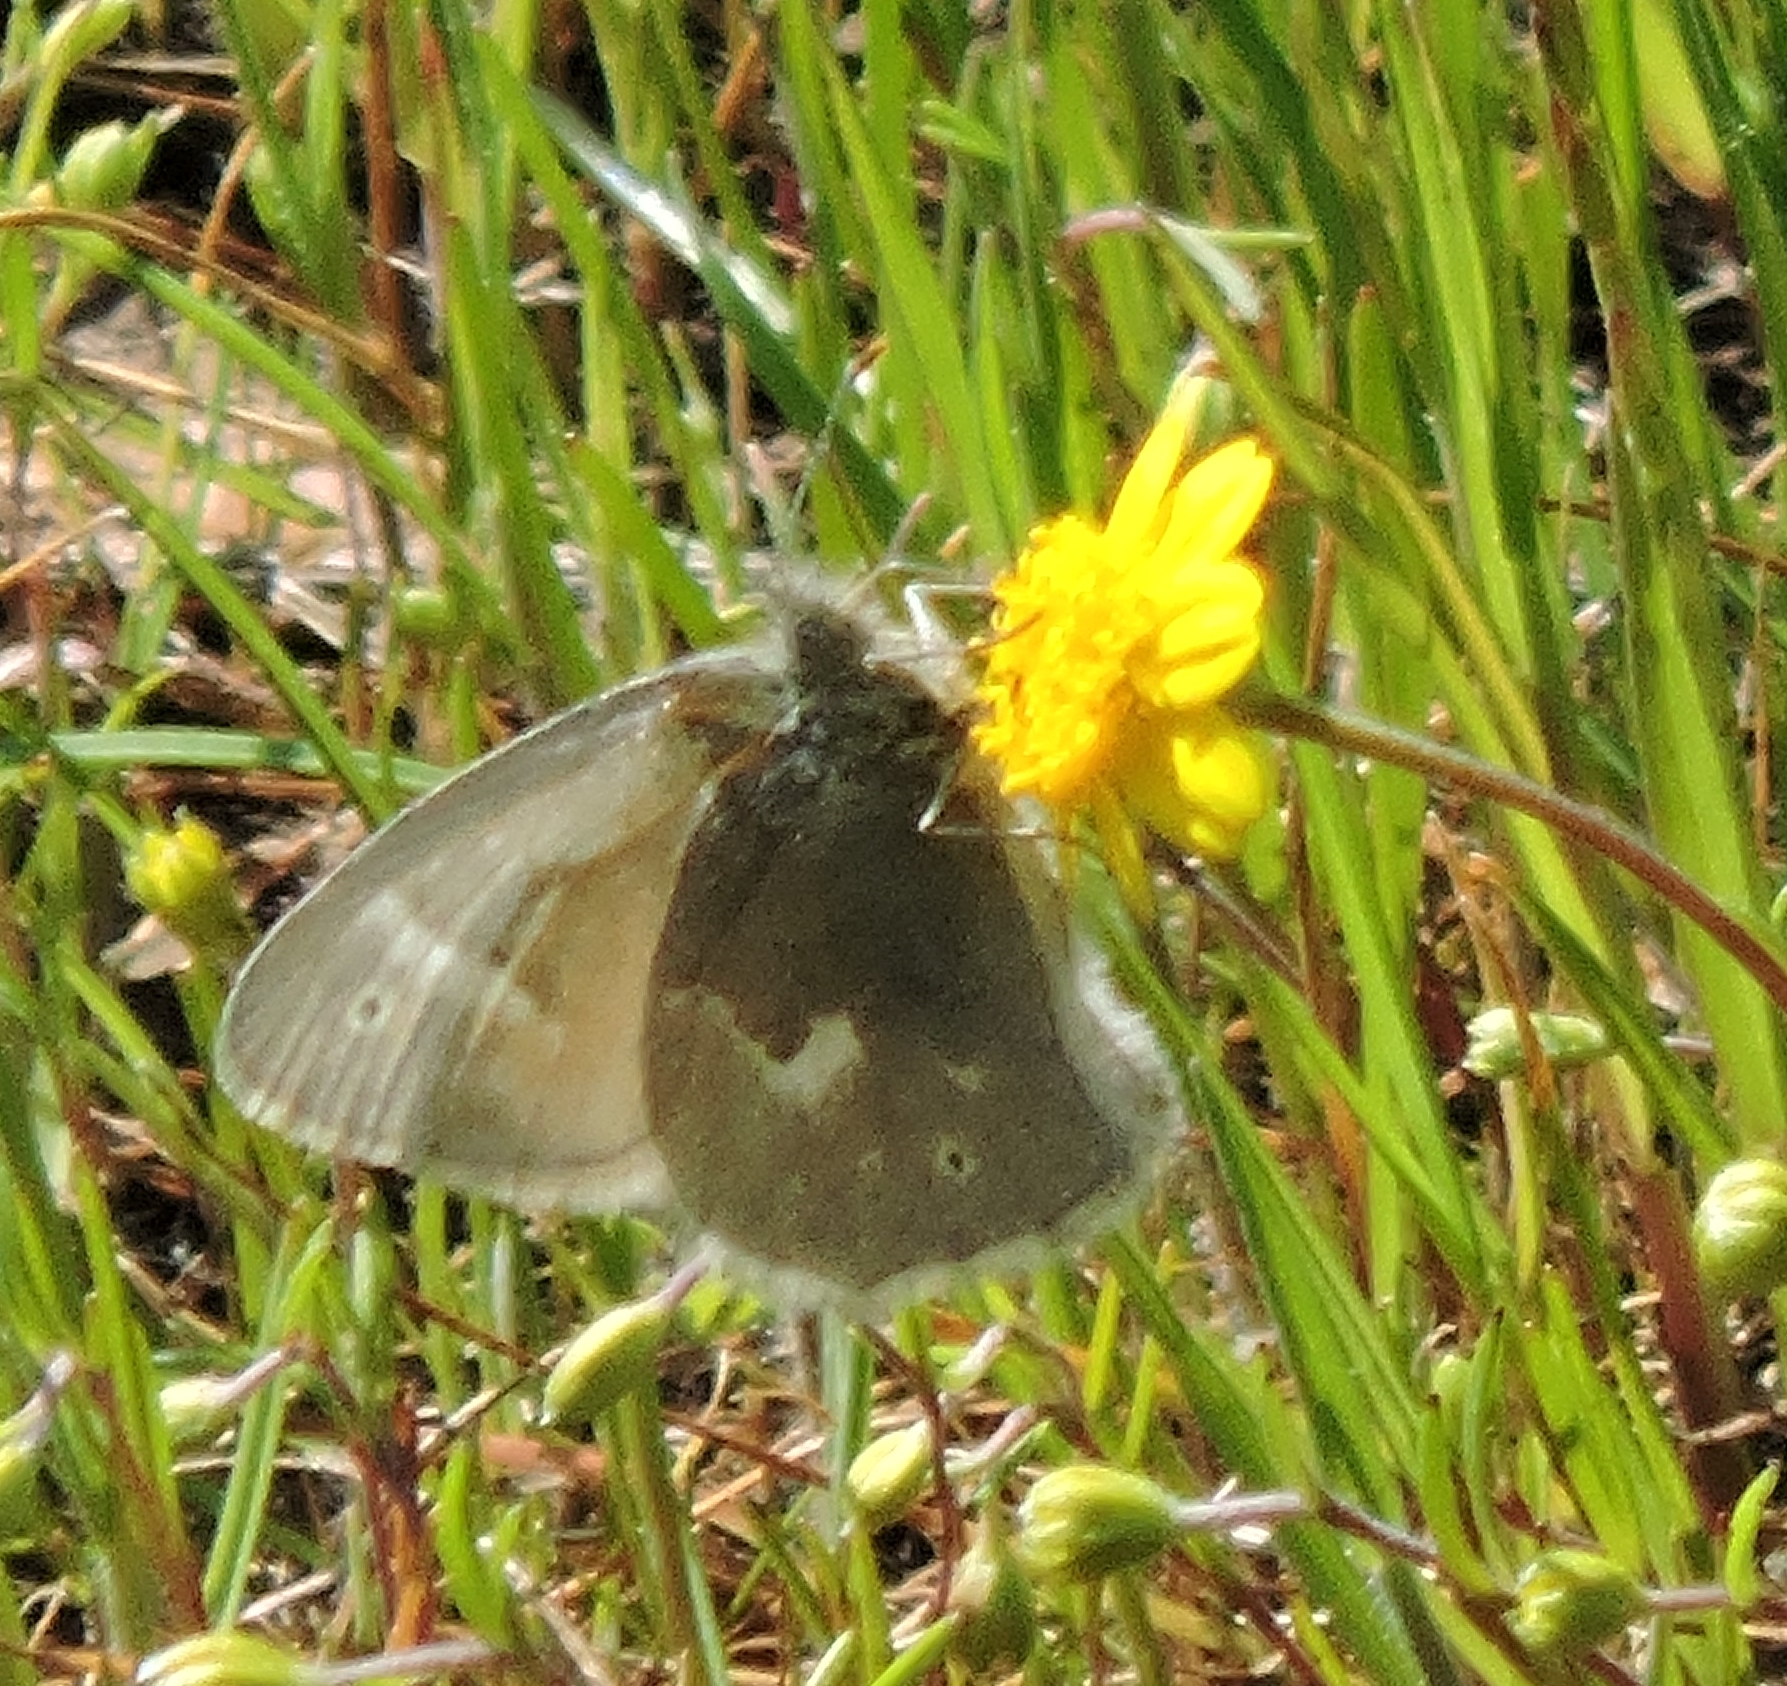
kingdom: Animalia
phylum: Arthropoda
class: Insecta
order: Lepidoptera
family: Nymphalidae
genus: Coenonympha
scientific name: Coenonympha california
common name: Common ringlet
